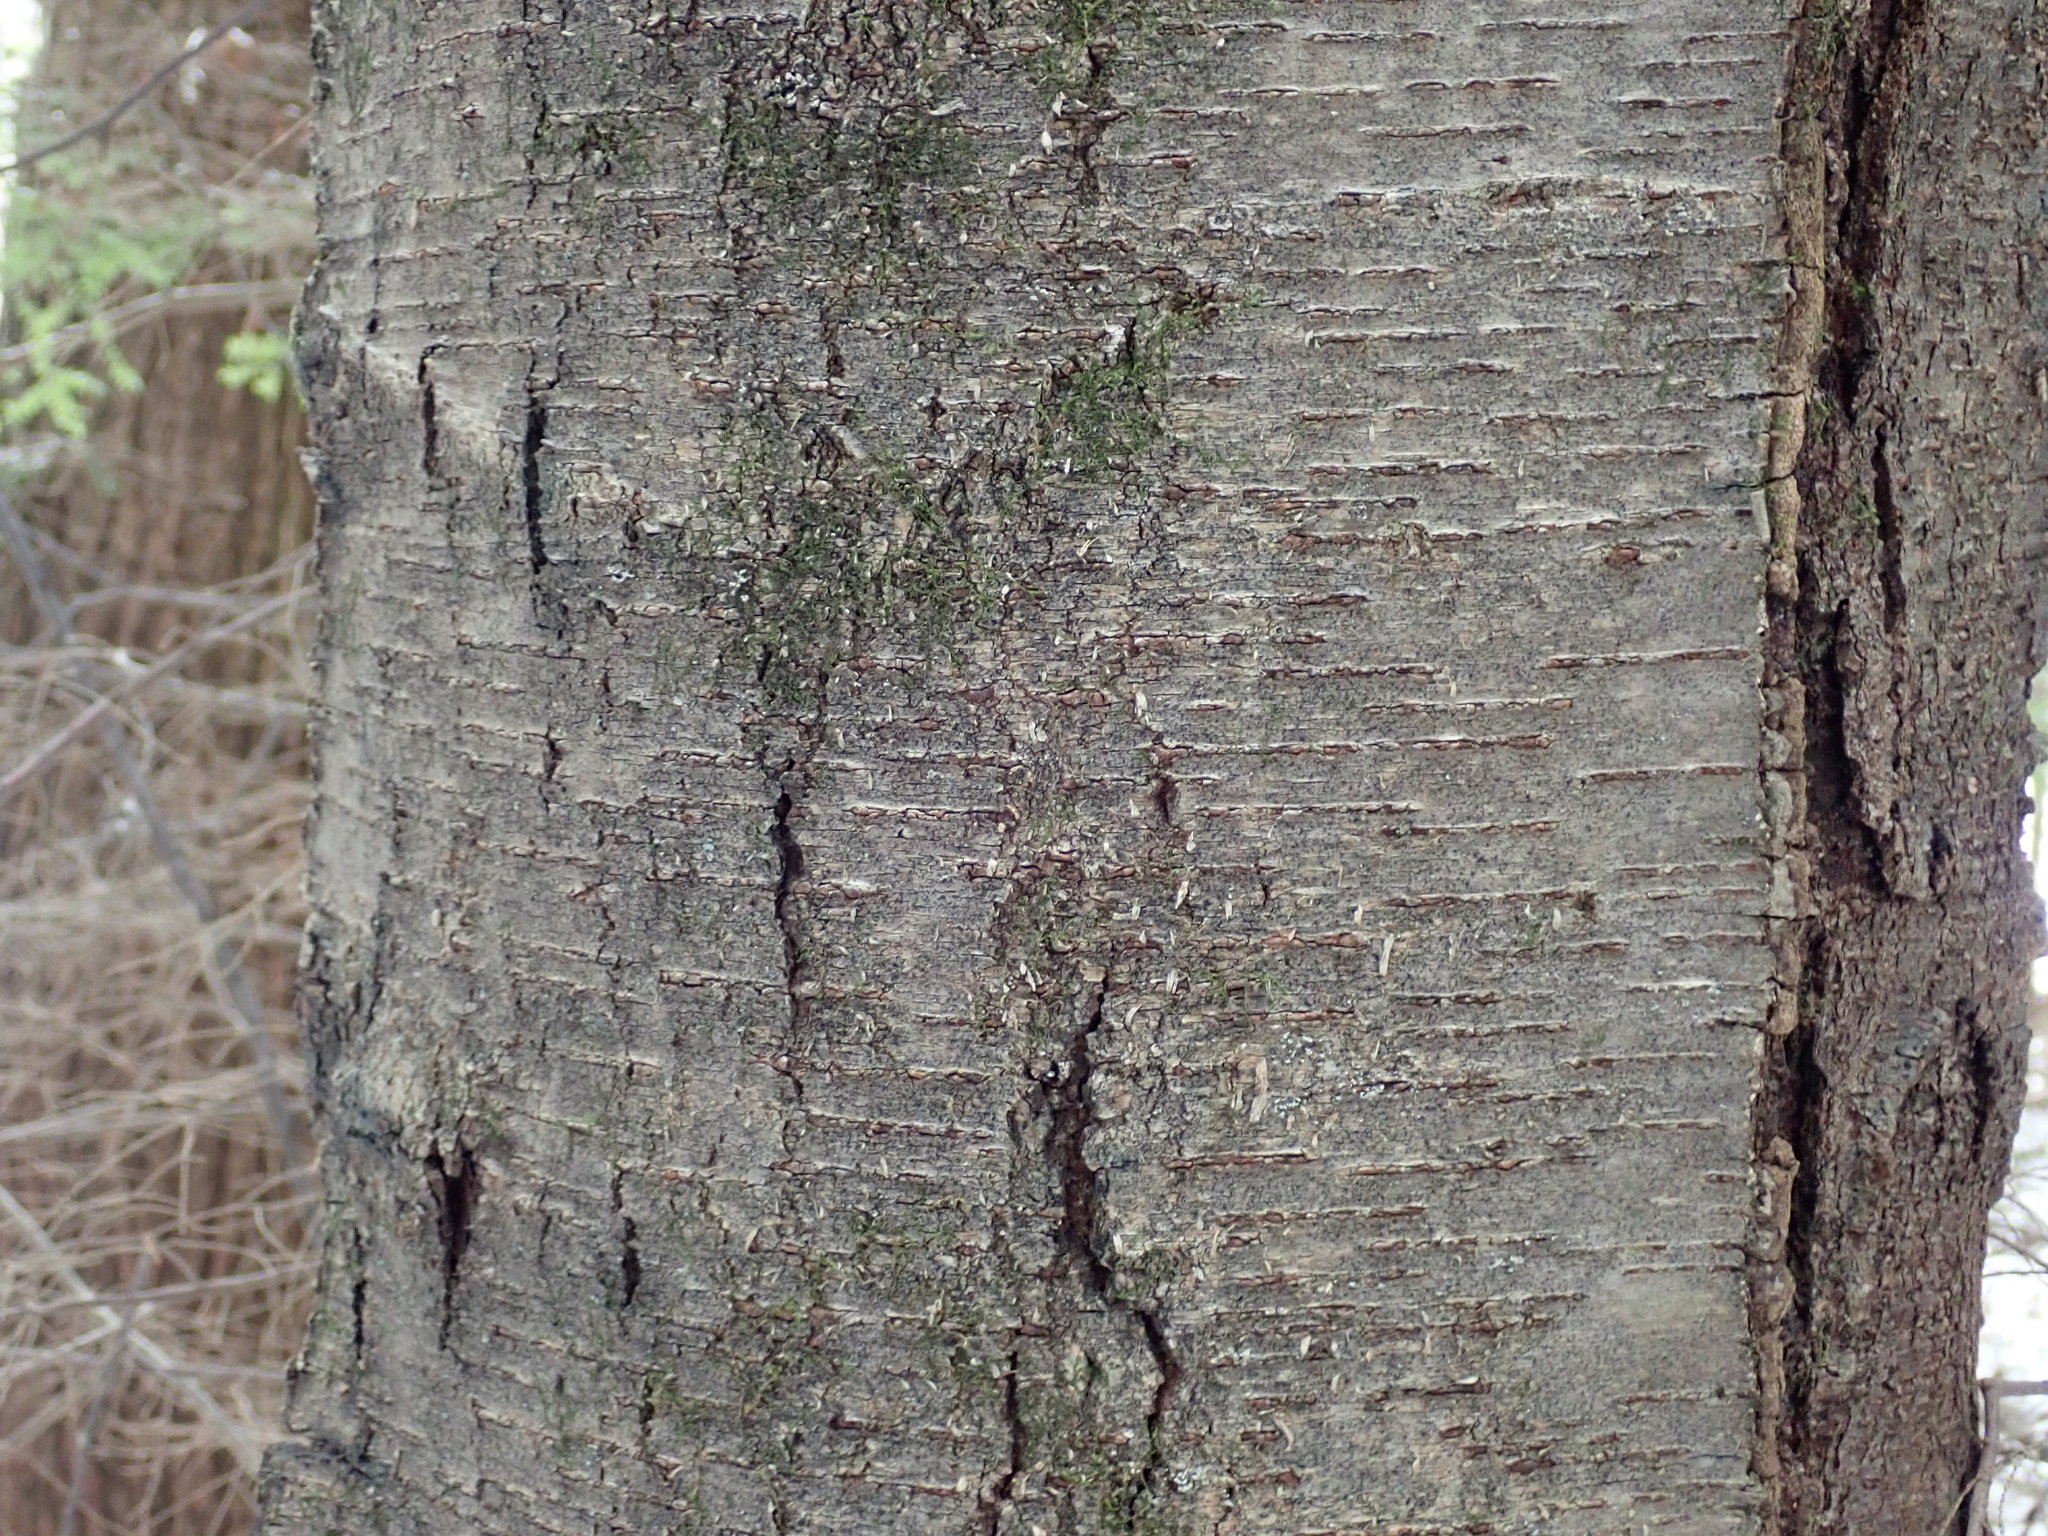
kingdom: Plantae
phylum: Tracheophyta
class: Magnoliopsida
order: Fagales
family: Betulaceae
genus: Betula
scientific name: Betula lenta
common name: Black birch
